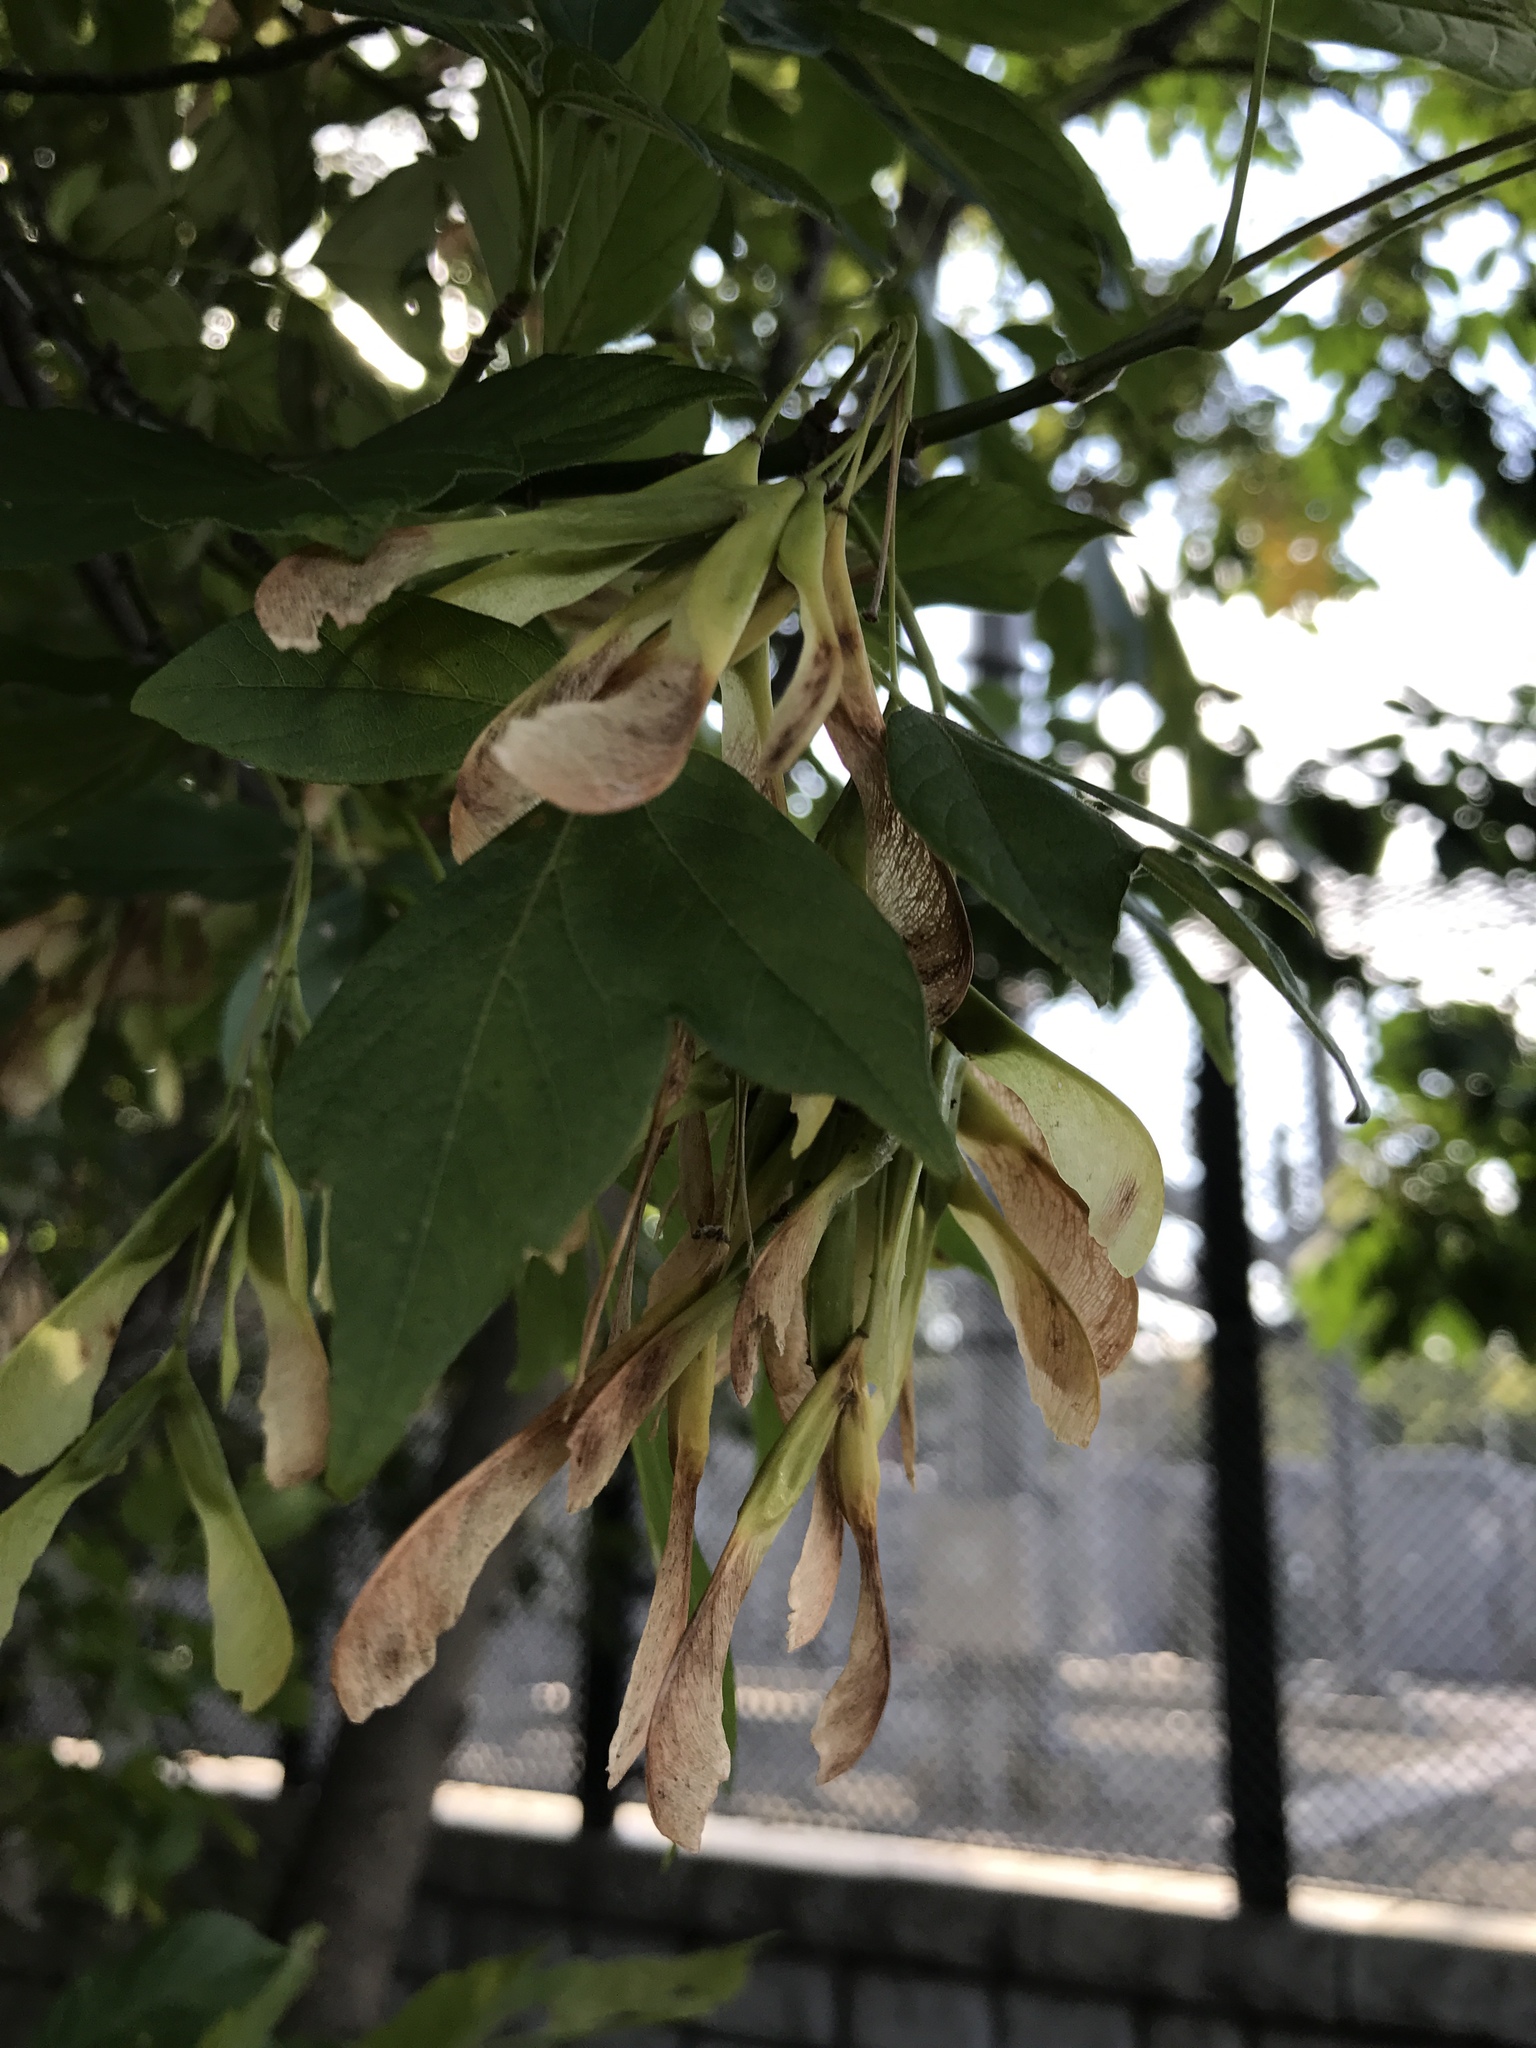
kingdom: Plantae
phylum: Tracheophyta
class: Magnoliopsida
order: Sapindales
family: Sapindaceae
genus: Acer
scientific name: Acer negundo
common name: Ashleaf maple
